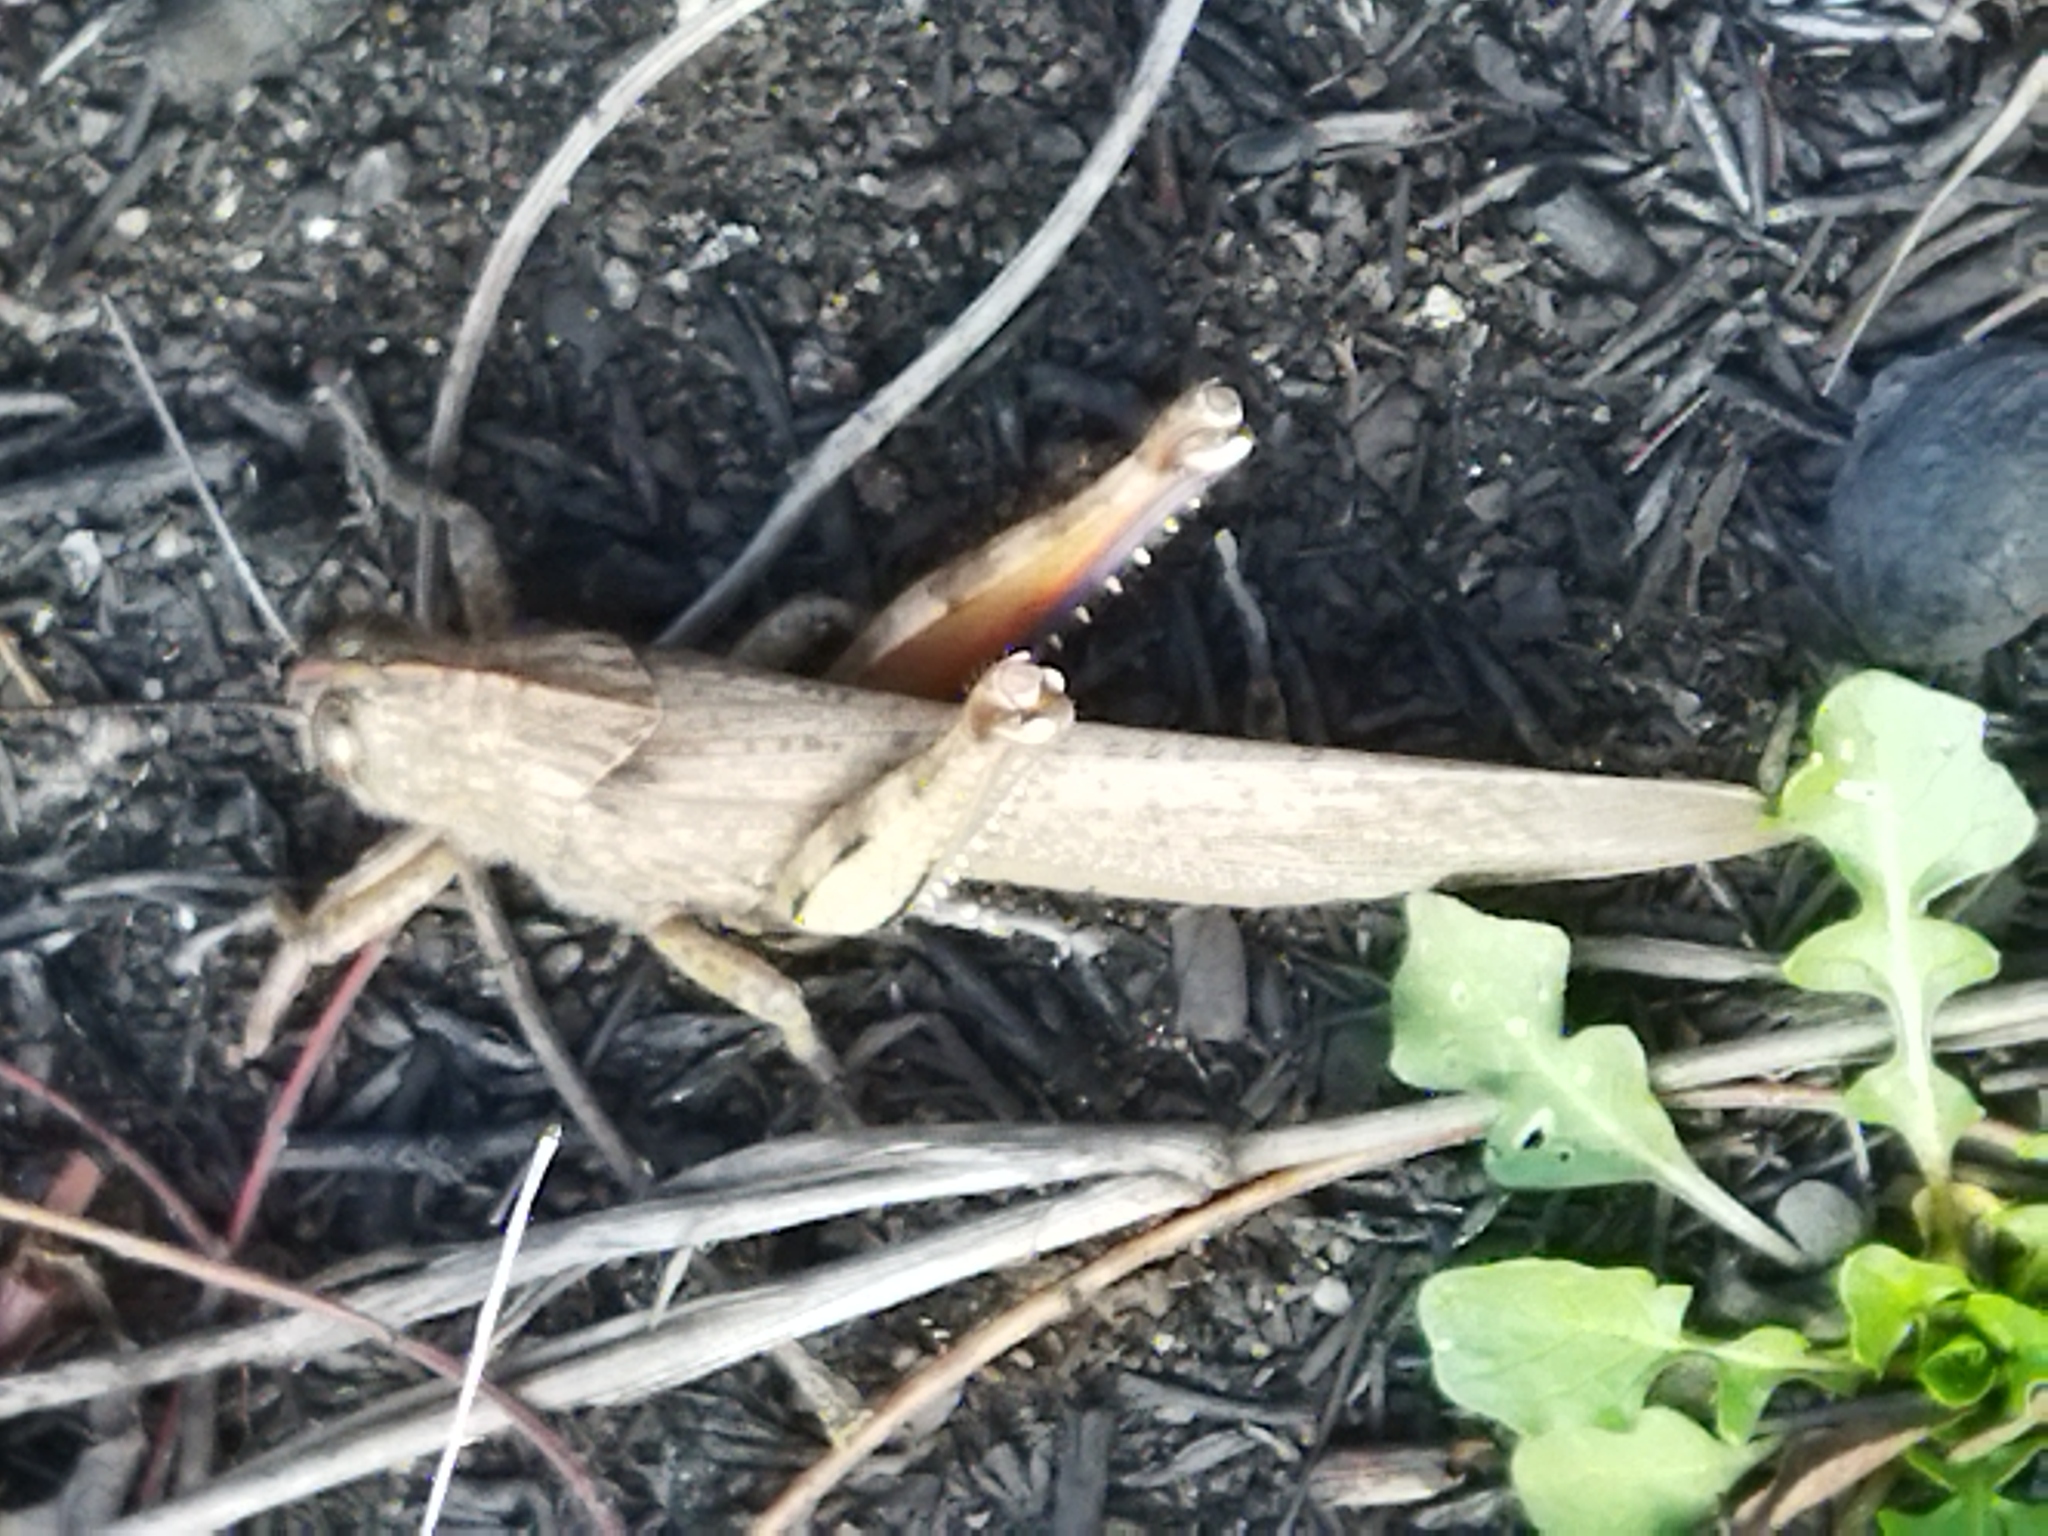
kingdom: Animalia
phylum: Arthropoda
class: Insecta
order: Orthoptera
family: Acrididae
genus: Anacridium
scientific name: Anacridium aegyptium
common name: Egyptian grasshopper
